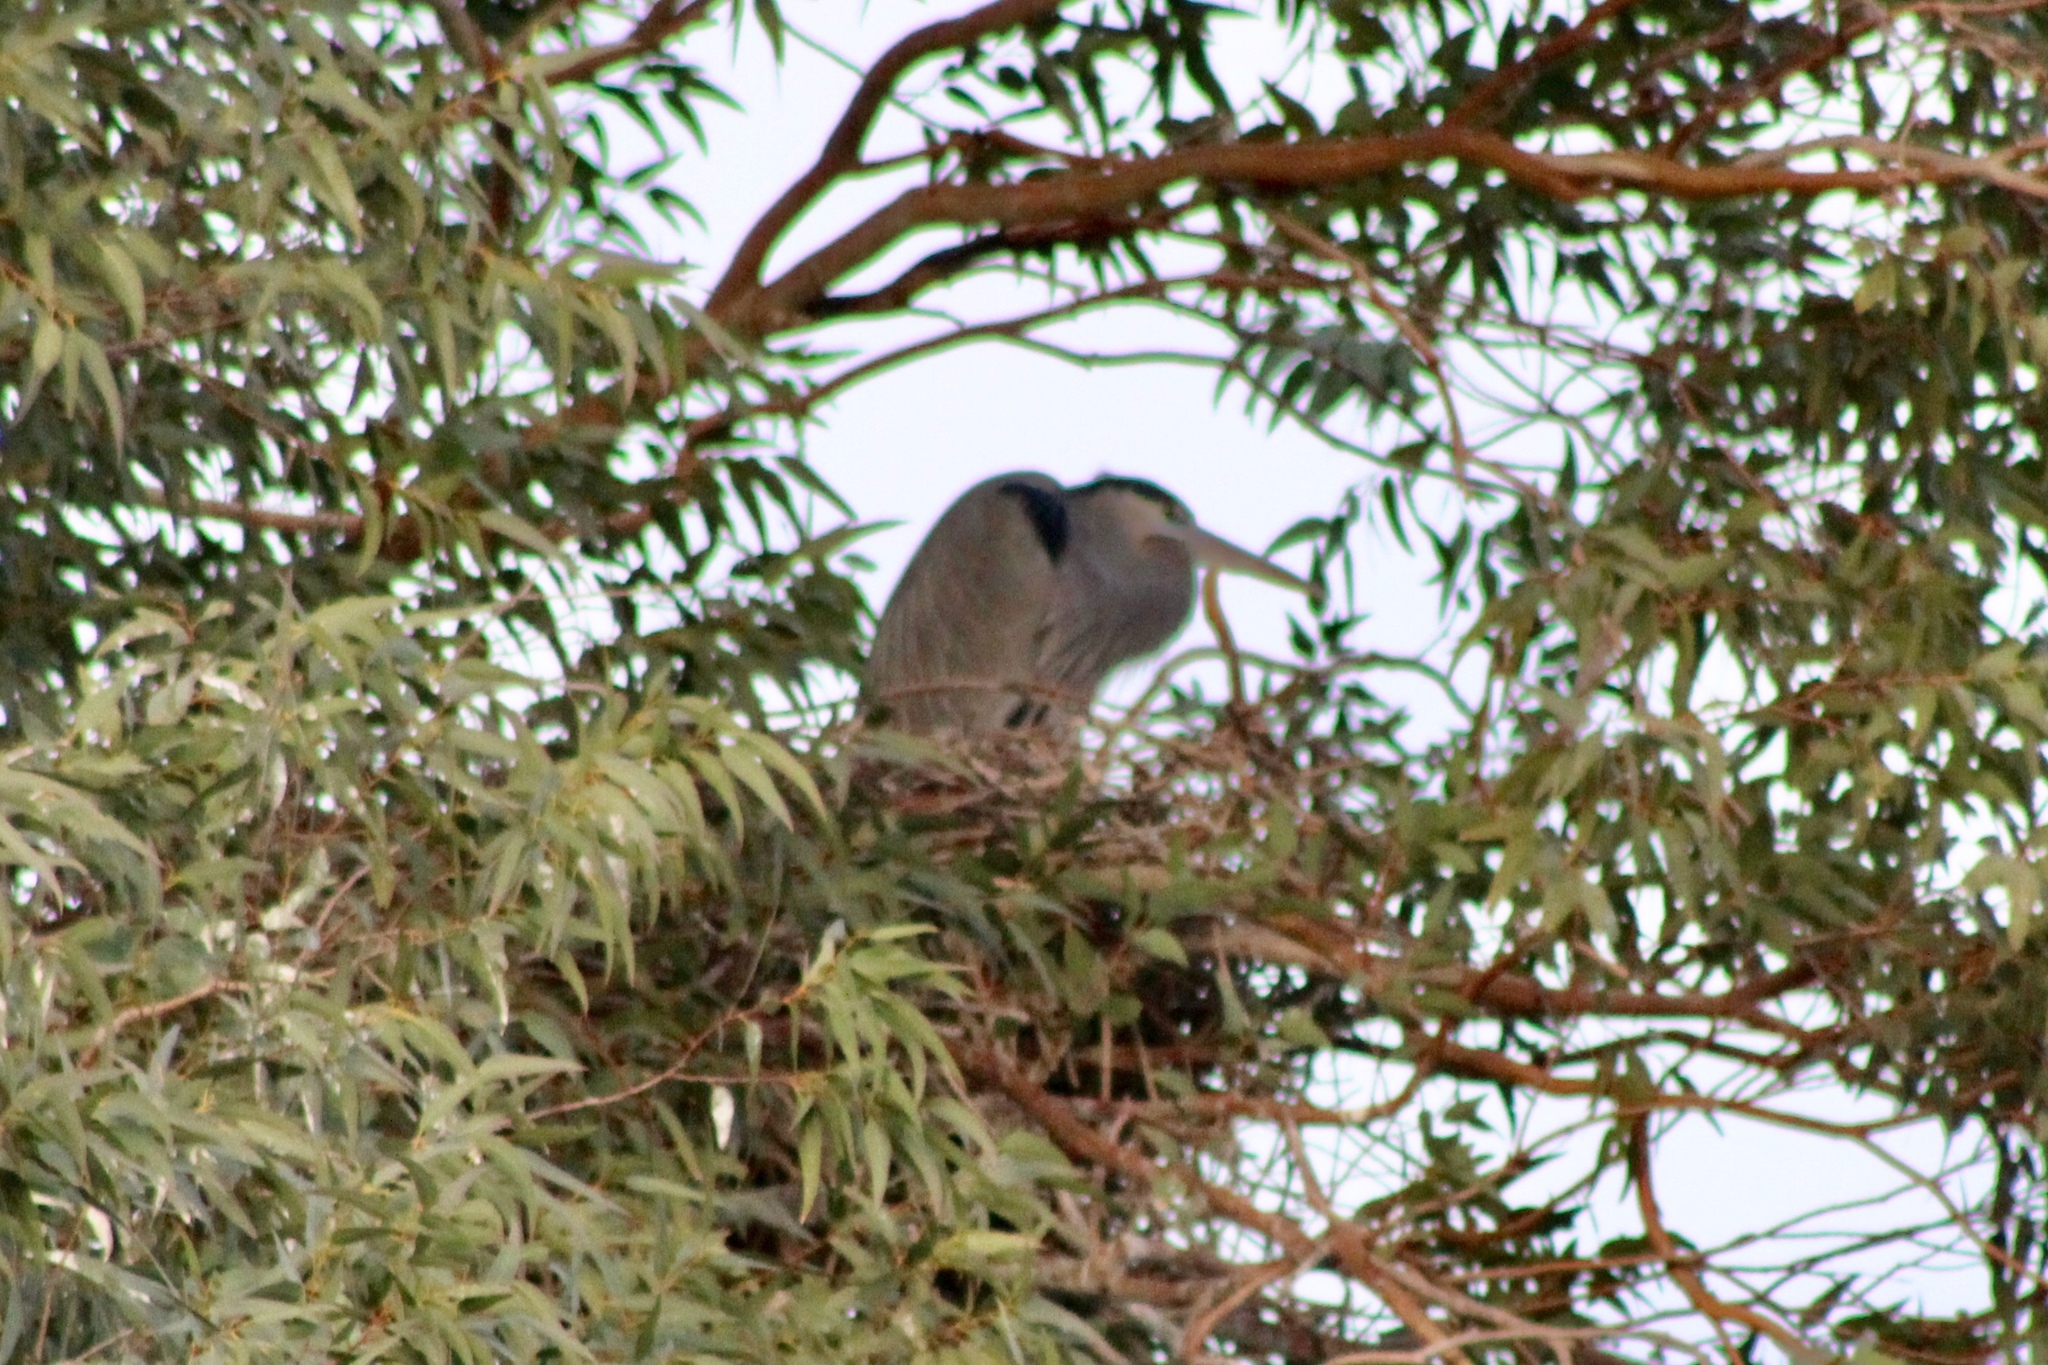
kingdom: Animalia
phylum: Chordata
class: Aves
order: Pelecaniformes
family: Ardeidae
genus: Ardea
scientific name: Ardea herodias
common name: Great blue heron
